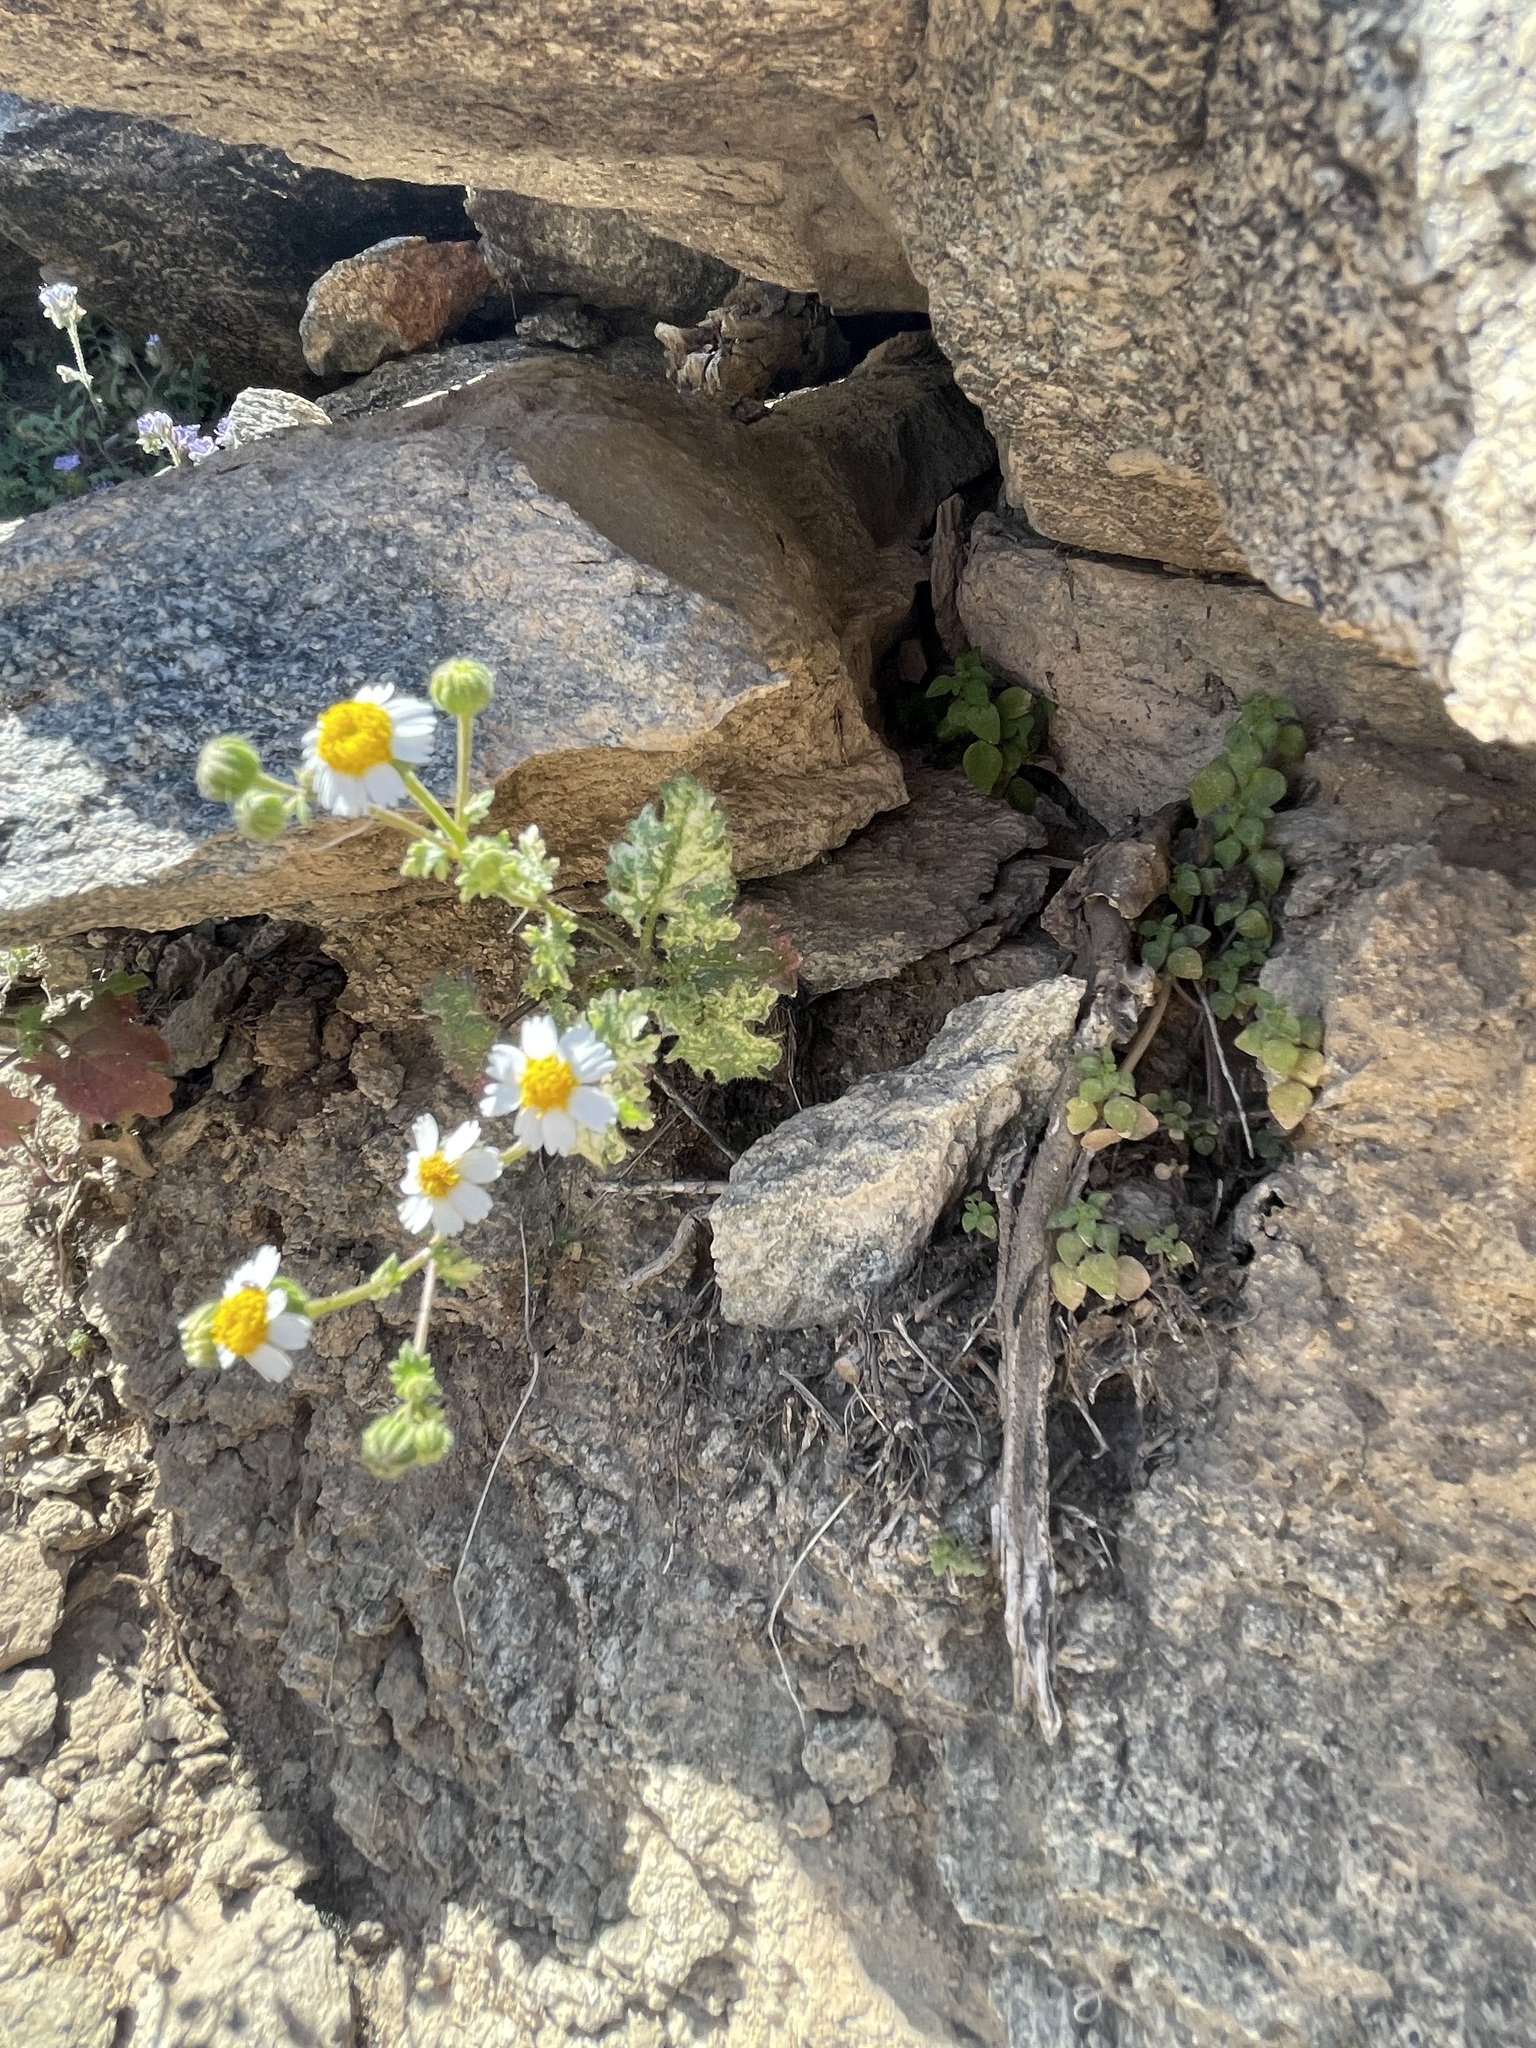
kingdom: Plantae
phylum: Tracheophyta
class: Magnoliopsida
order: Asterales
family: Asteraceae
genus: Laphamia
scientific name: Laphamia emoryi
